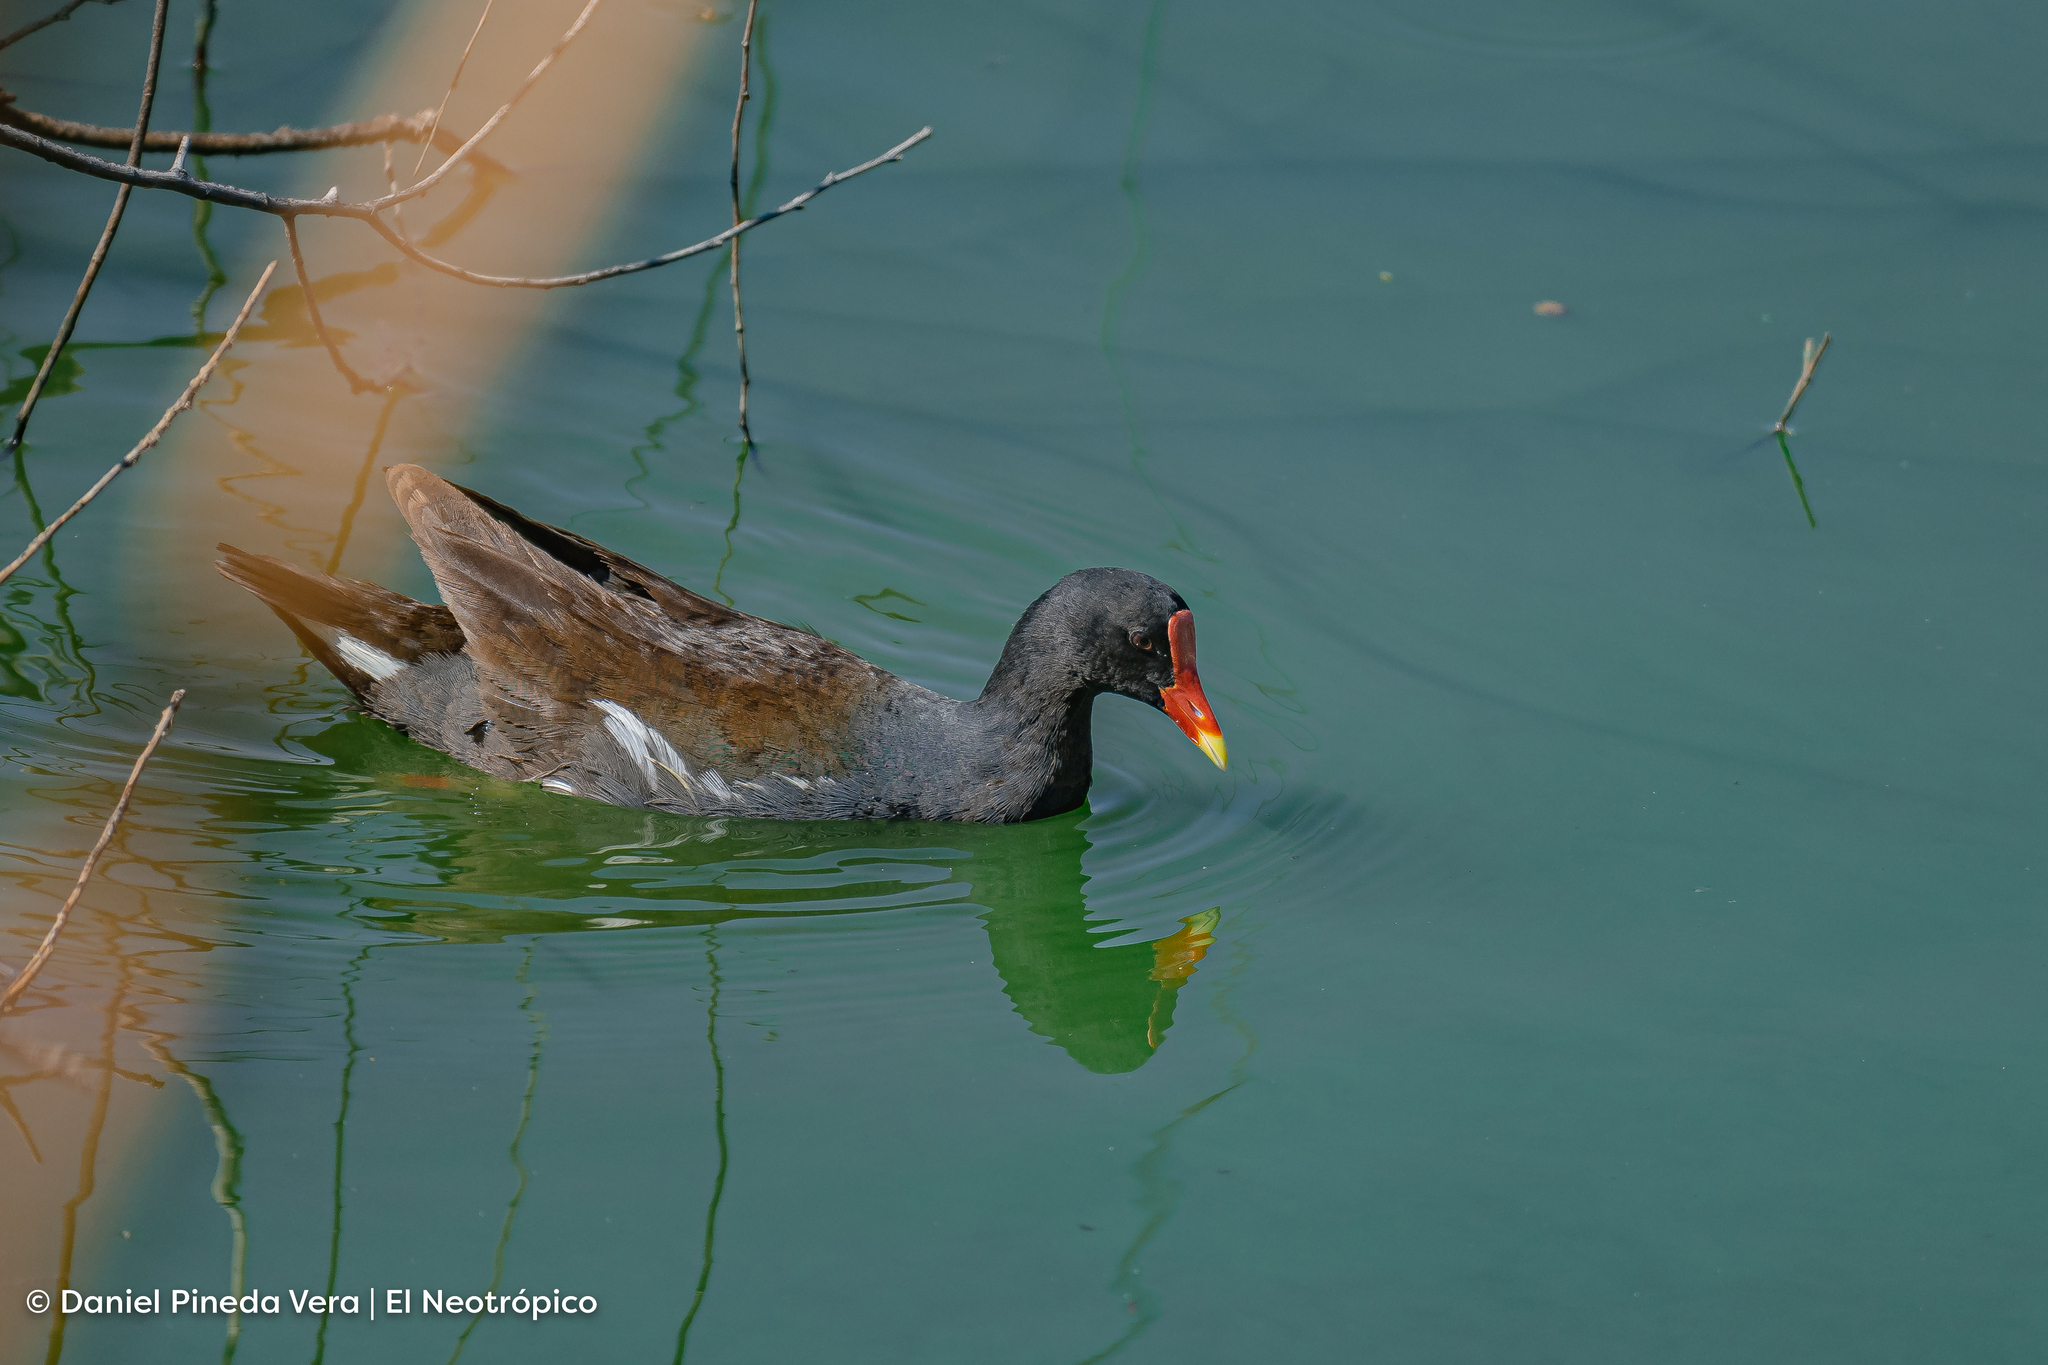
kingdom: Animalia
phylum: Chordata
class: Aves
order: Gruiformes
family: Rallidae
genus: Gallinula
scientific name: Gallinula chloropus
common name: Common moorhen
